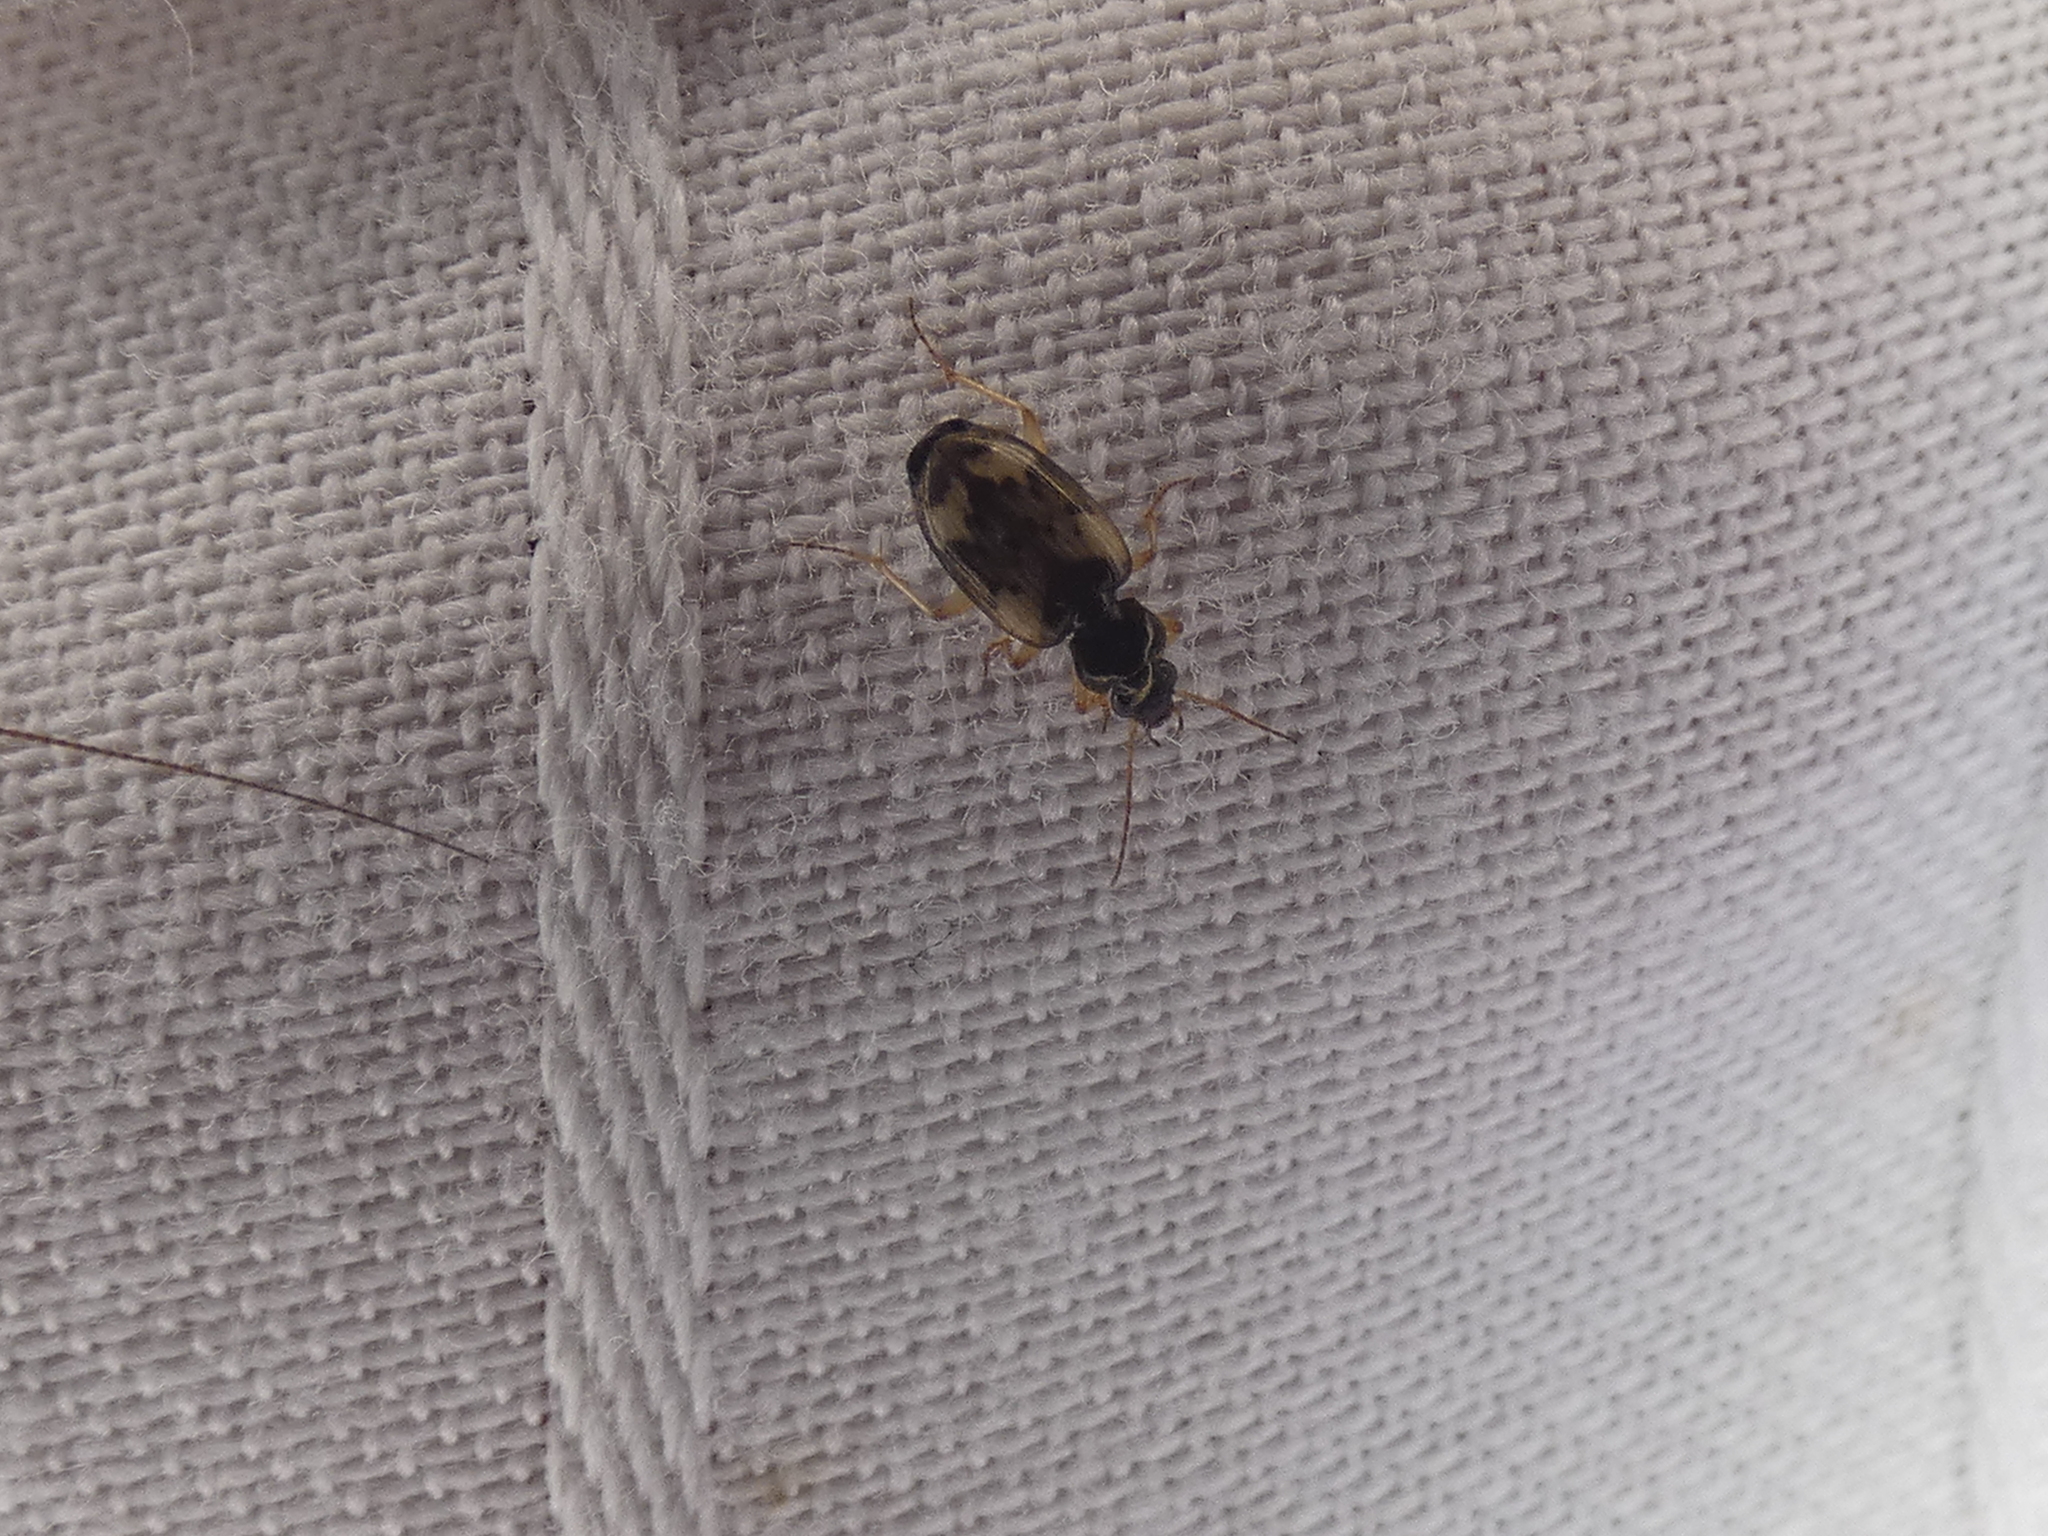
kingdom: Animalia
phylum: Arthropoda
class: Insecta
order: Coleoptera
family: Carabidae
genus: Tetragonoderus
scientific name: Tetragonoderus fasciatus
